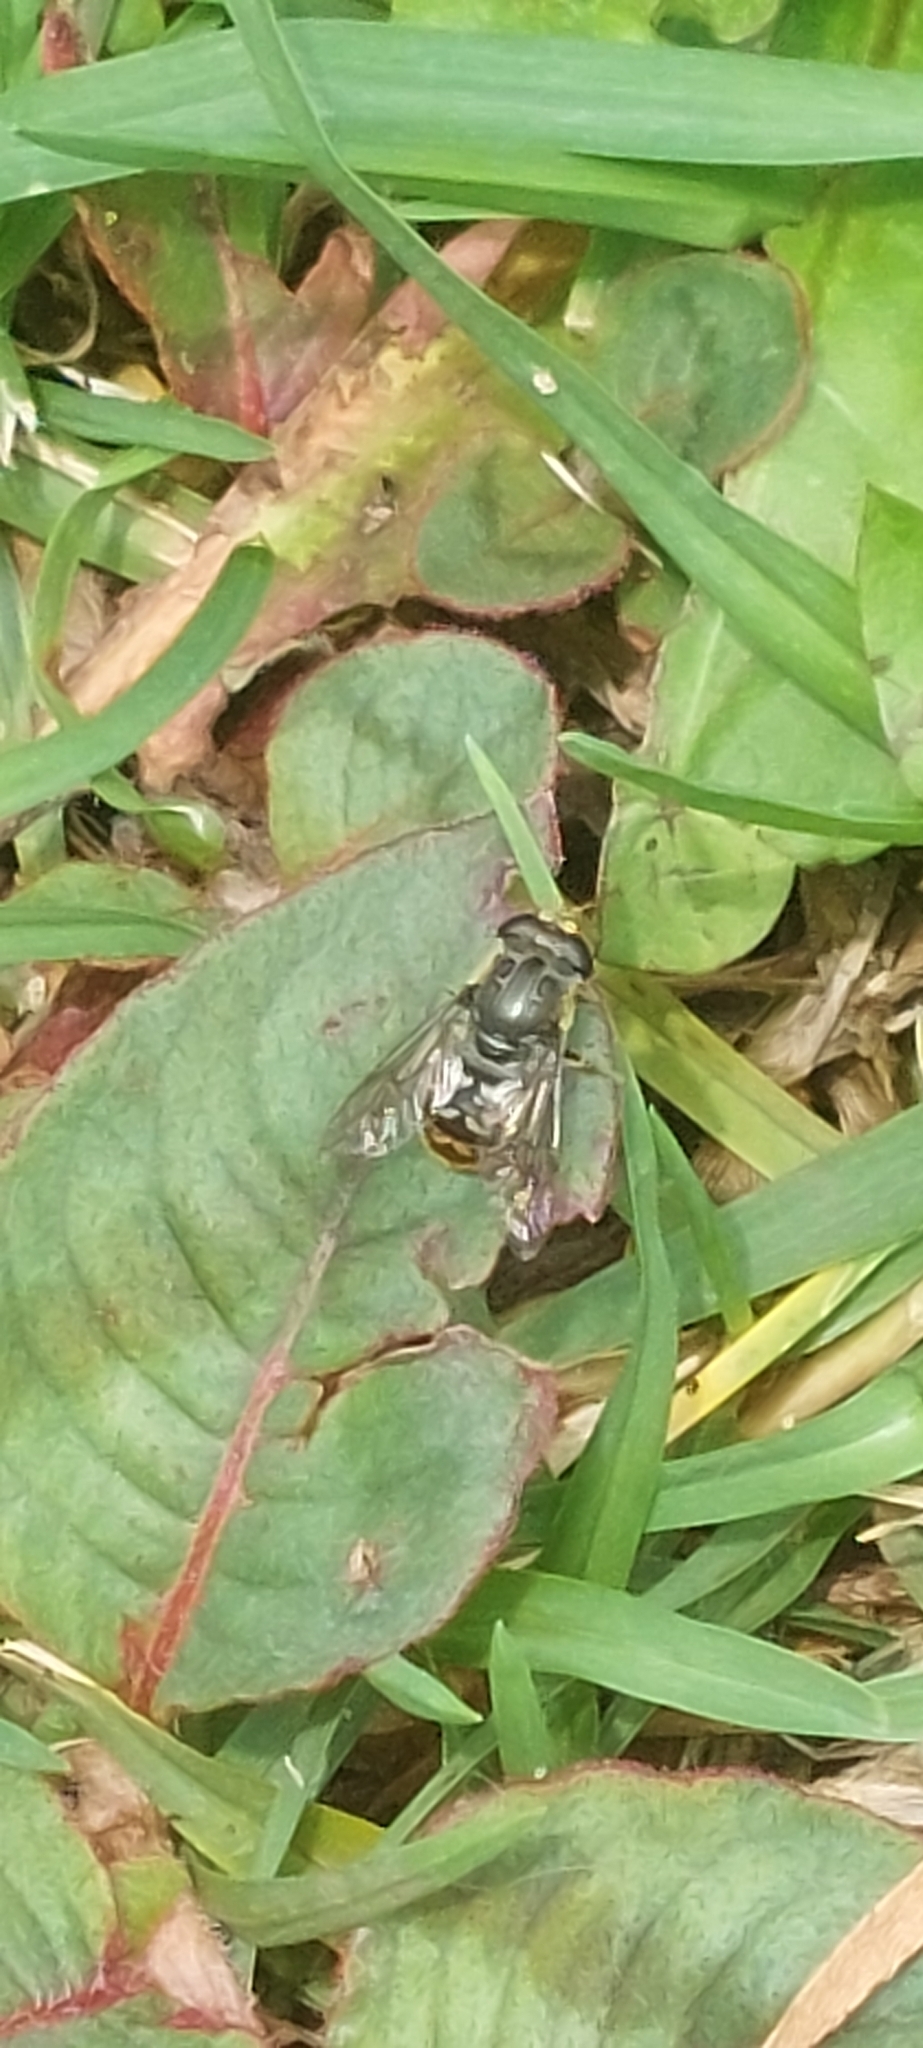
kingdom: Animalia
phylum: Arthropoda
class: Insecta
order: Diptera
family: Syrphidae
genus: Asemosyrphus
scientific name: Asemosyrphus
